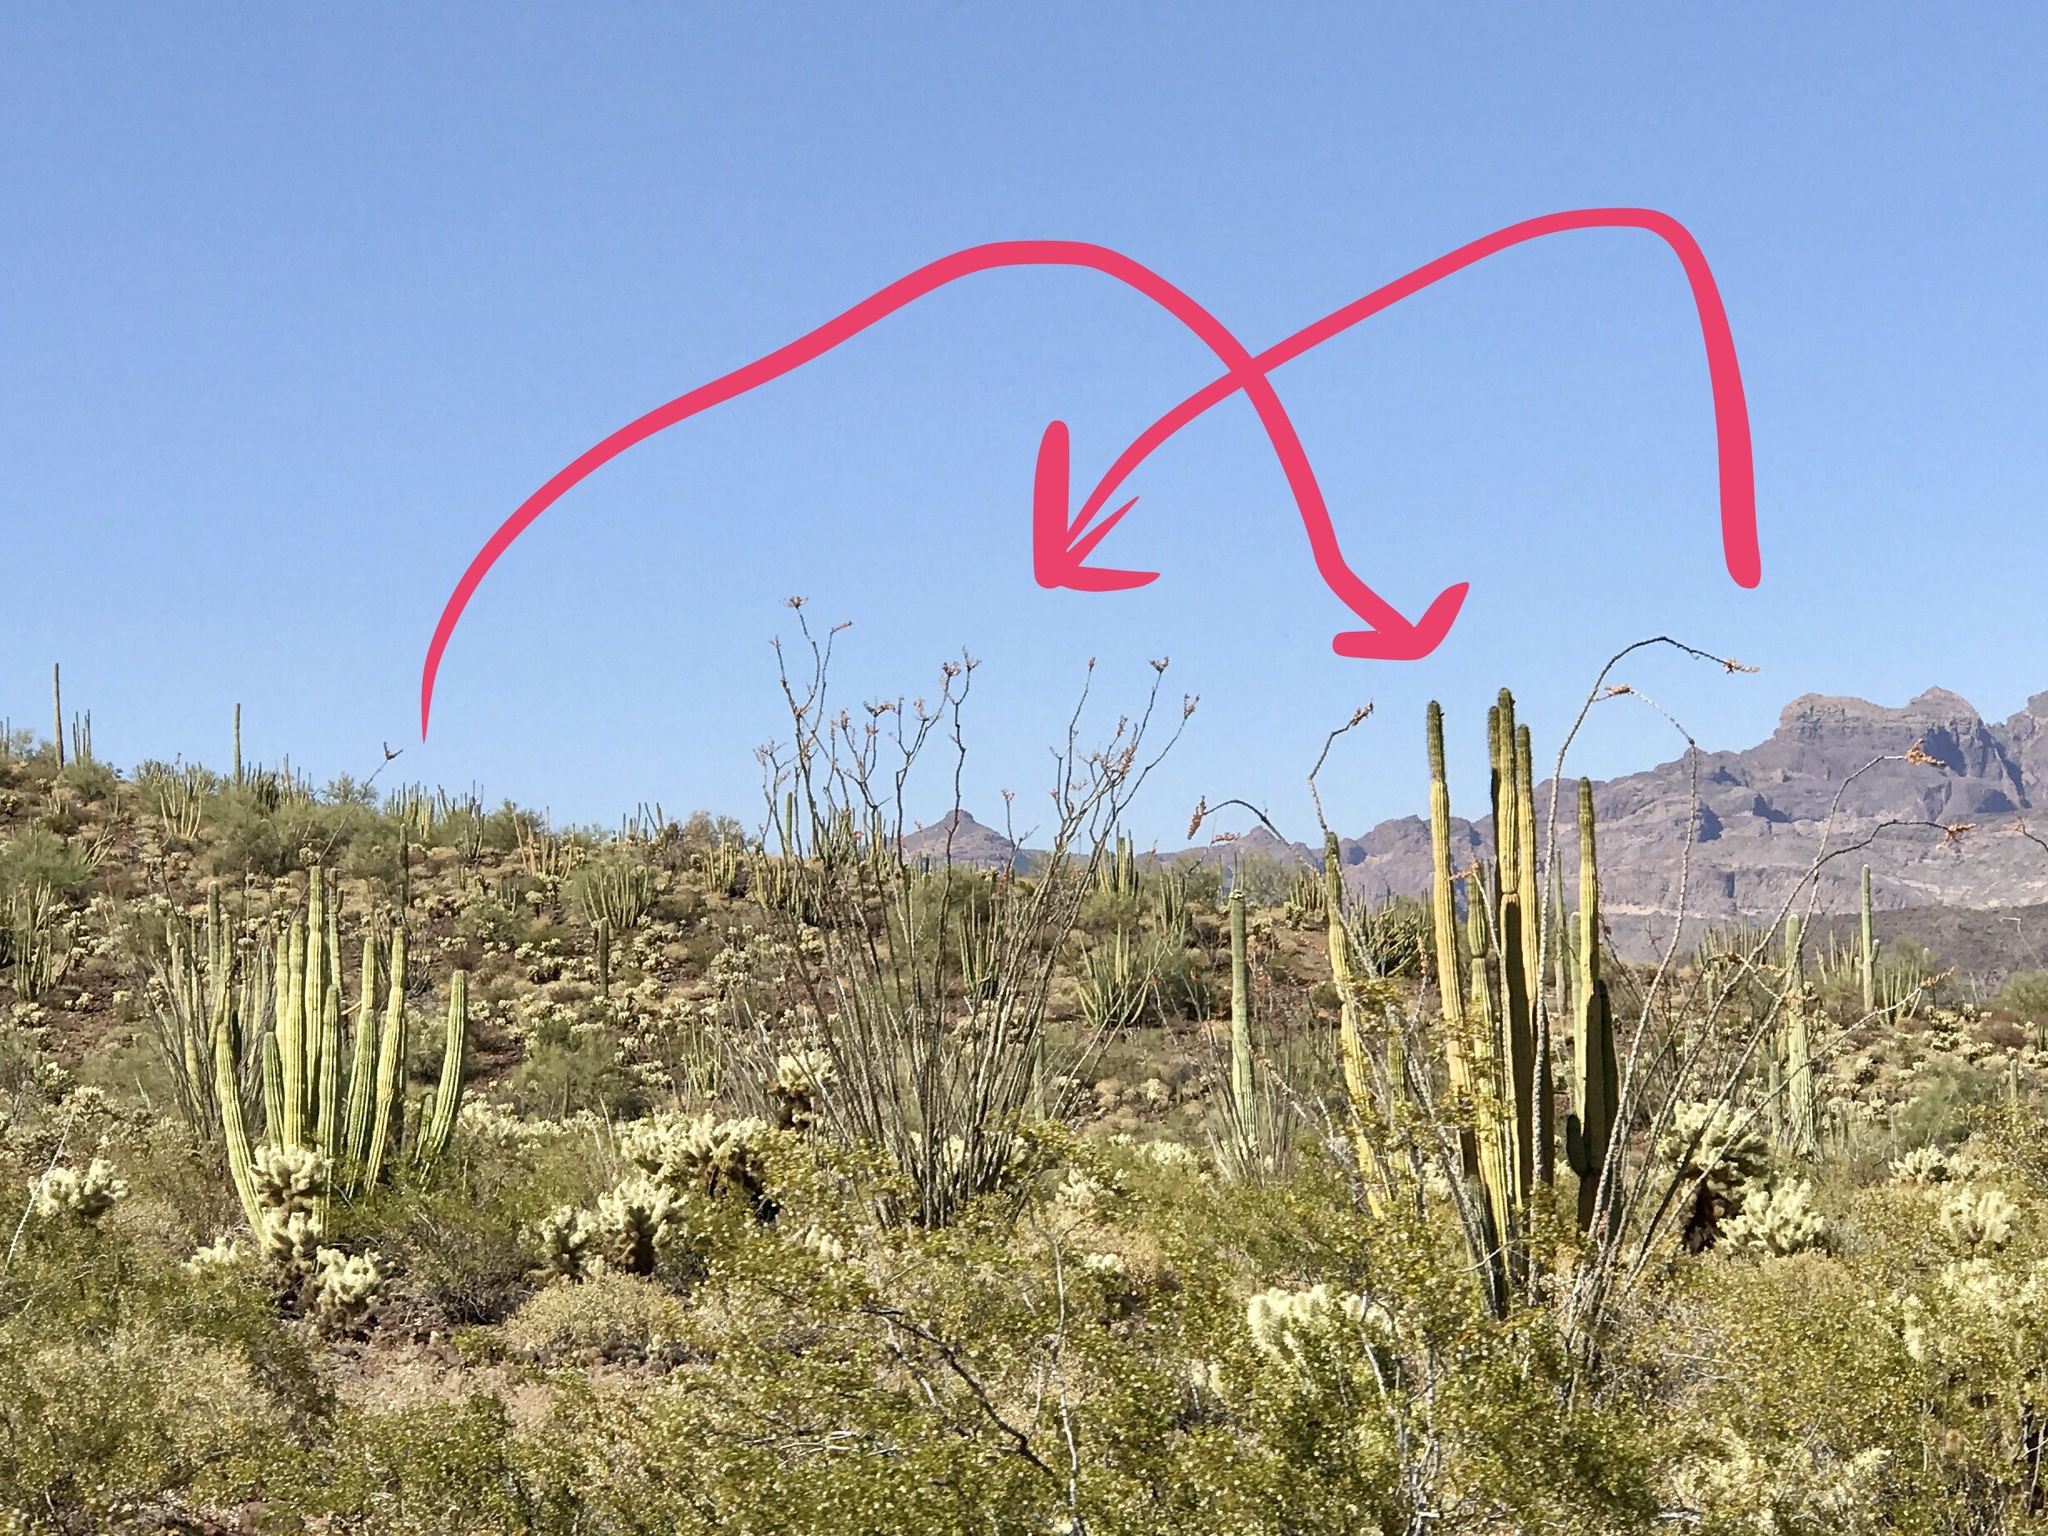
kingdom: Plantae
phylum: Tracheophyta
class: Magnoliopsida
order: Ericales
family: Fouquieriaceae
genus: Fouquieria
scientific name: Fouquieria splendens
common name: Vine-cactus
